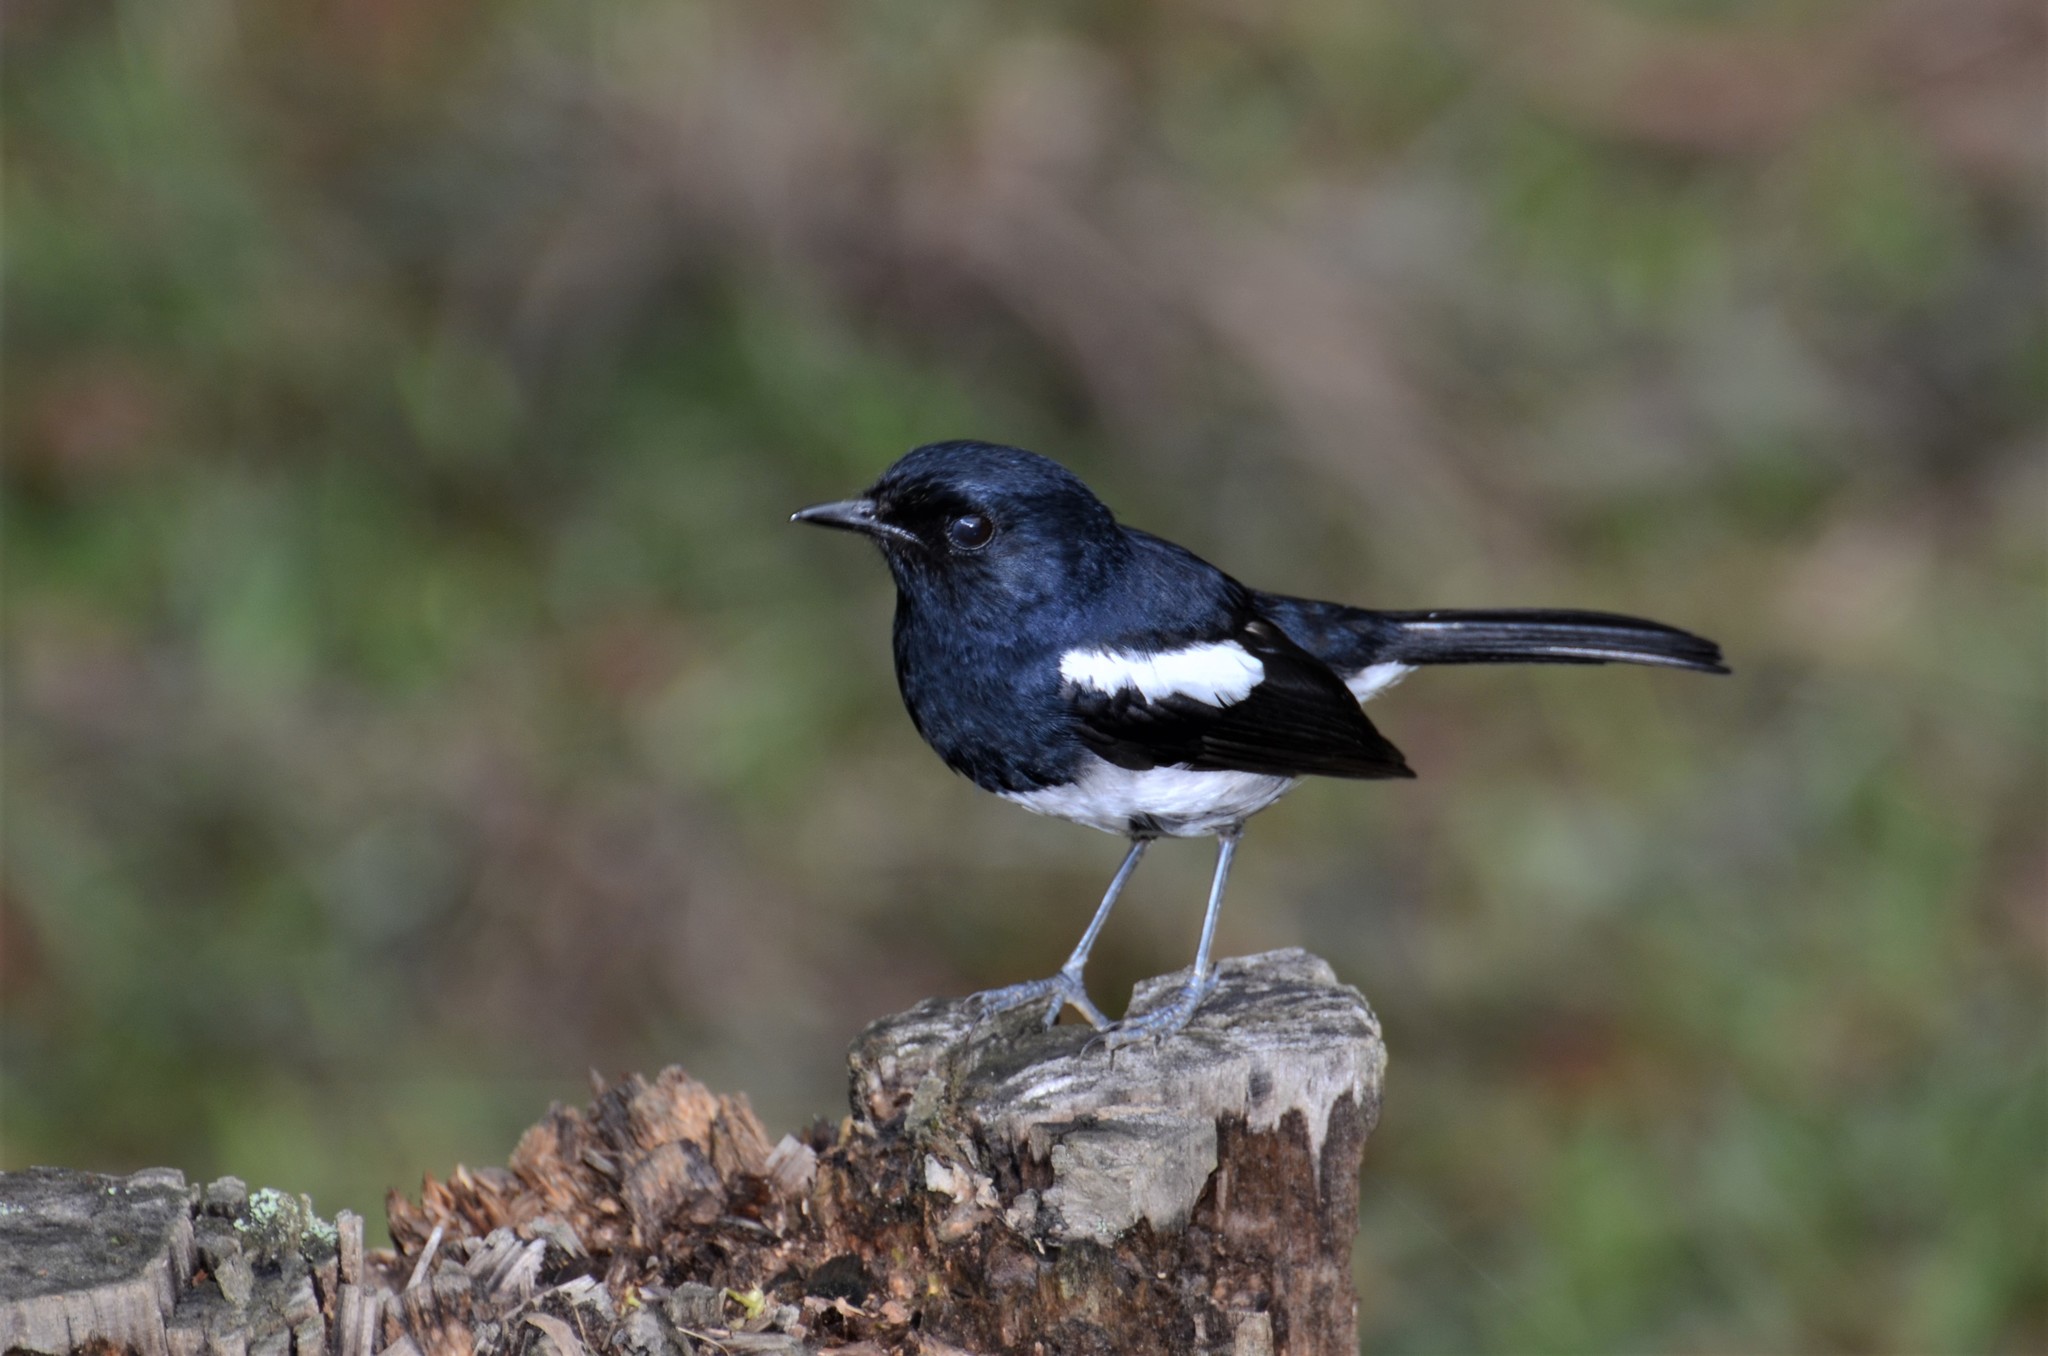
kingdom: Animalia
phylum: Chordata
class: Aves
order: Passeriformes
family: Muscicapidae
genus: Copsychus
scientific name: Copsychus albospecularis
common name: Madagascar magpie-robin
